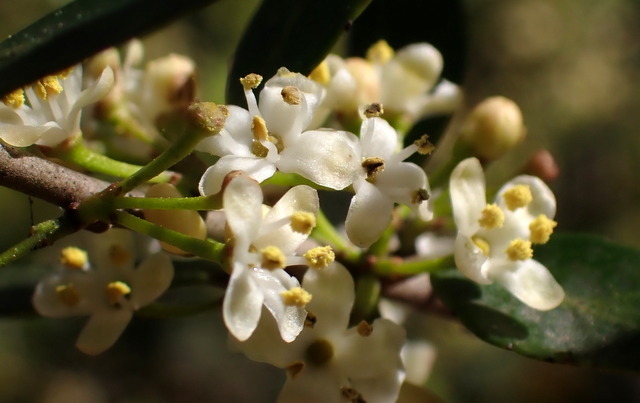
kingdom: Plantae
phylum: Tracheophyta
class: Magnoliopsida
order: Aquifoliales
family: Aquifoliaceae
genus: Ilex
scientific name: Ilex vomitoria
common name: Yaupon holly
